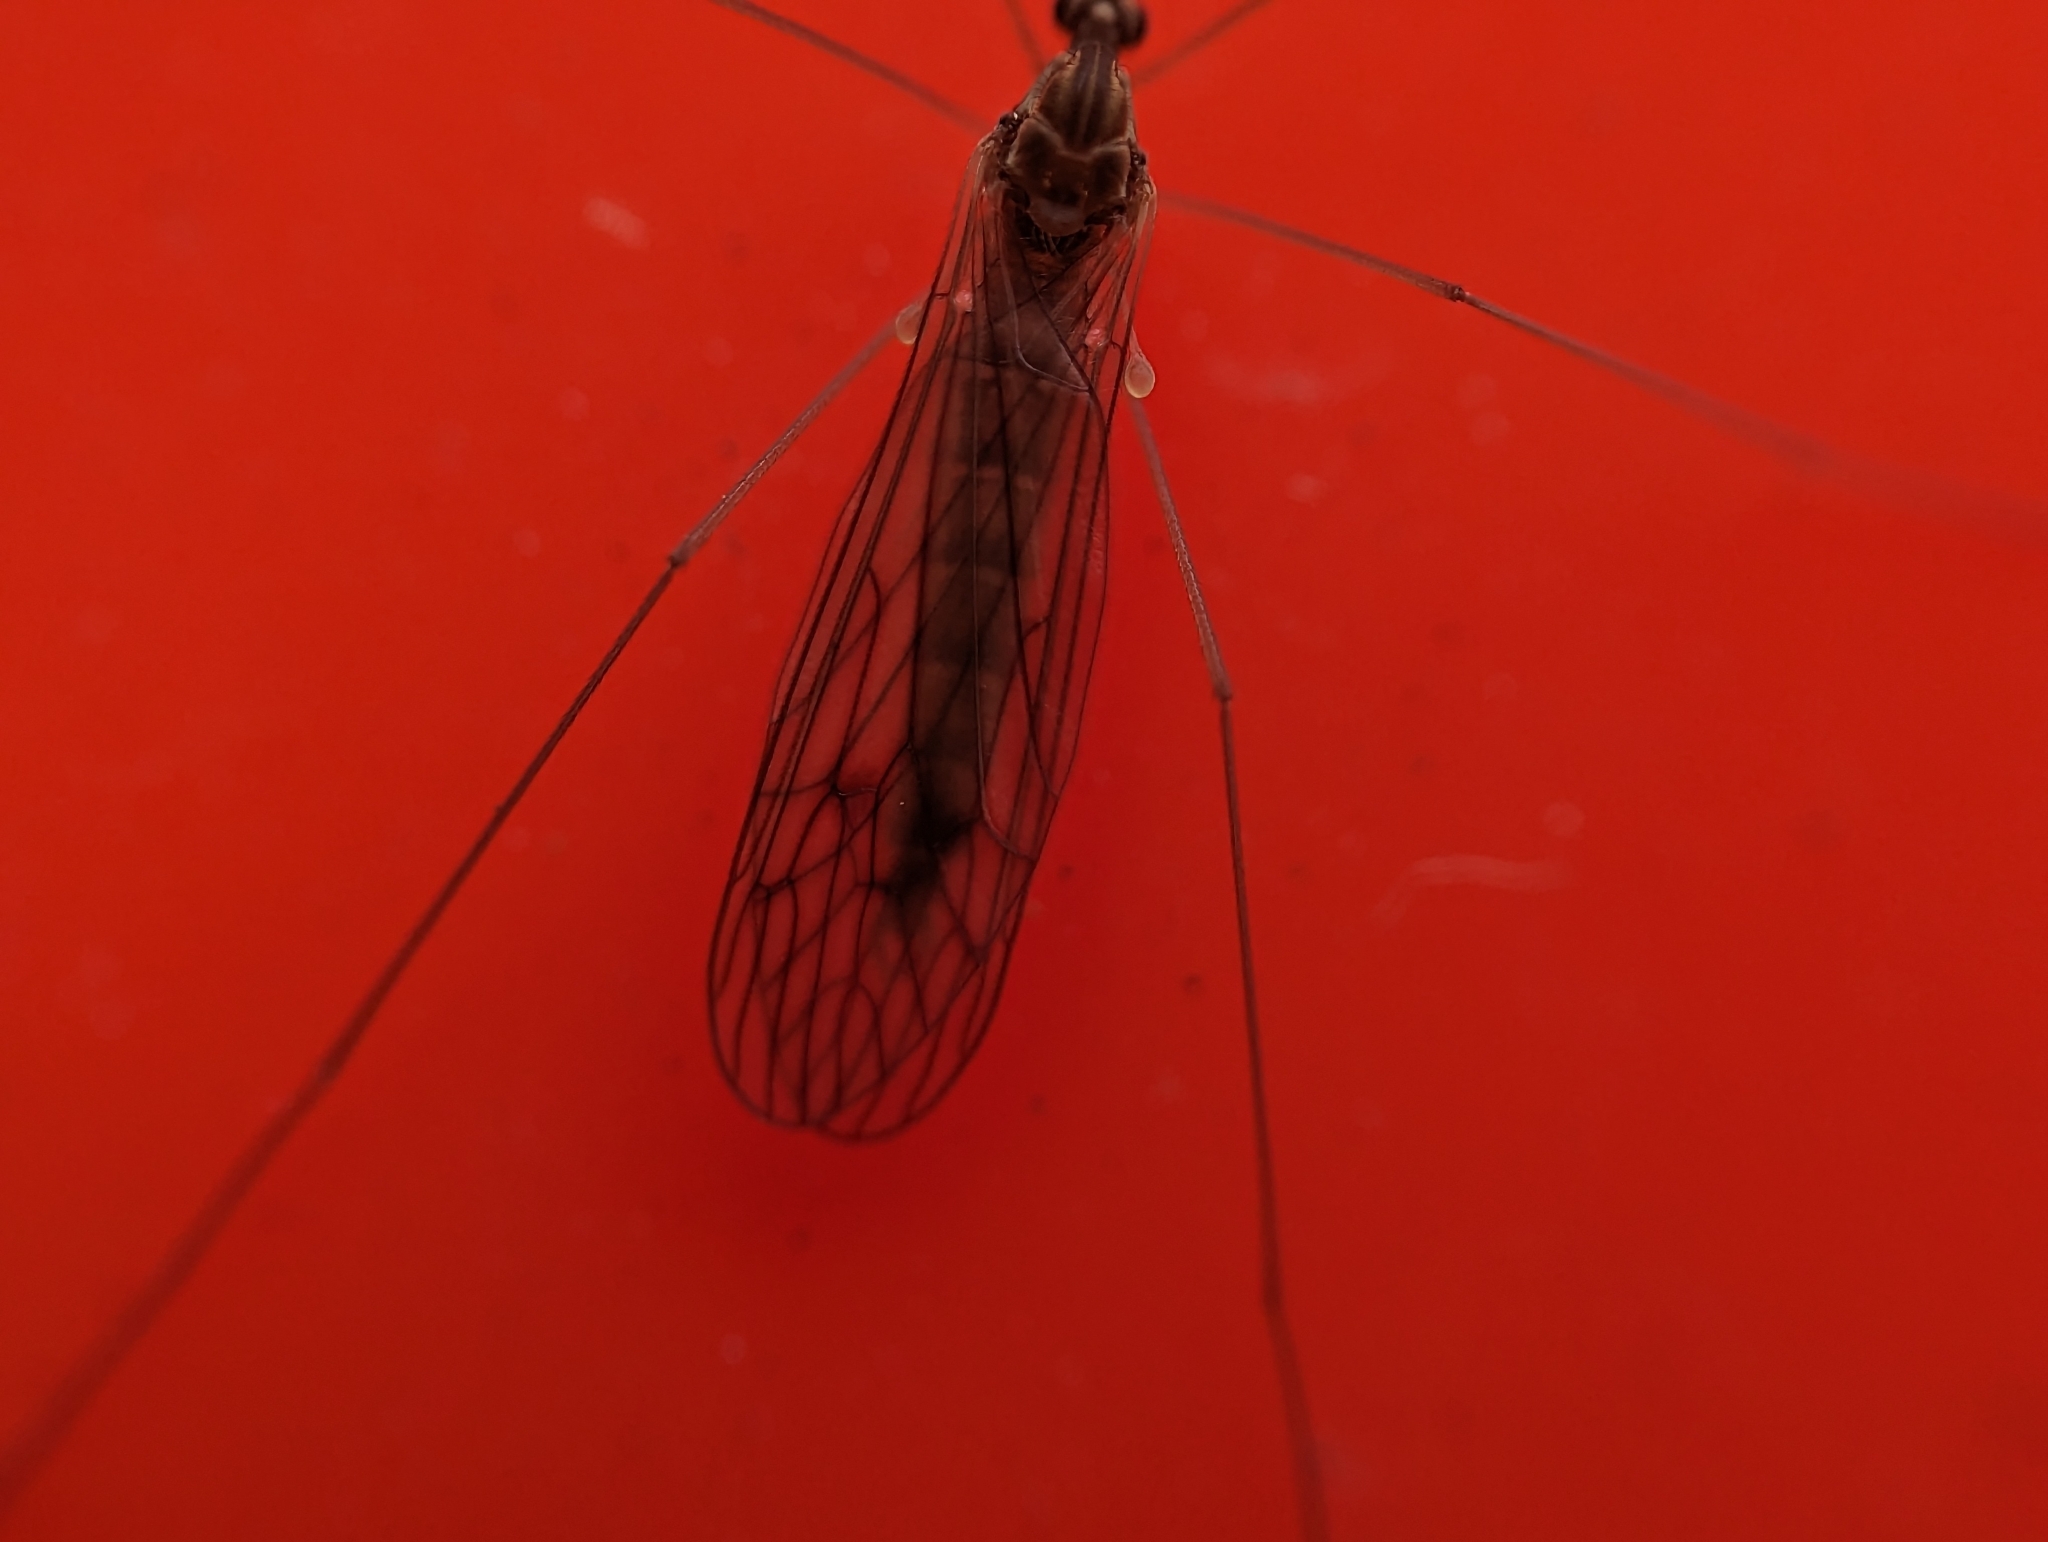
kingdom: Animalia
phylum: Arthropoda
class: Insecta
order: Diptera
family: Trichoceridae
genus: Trichocera
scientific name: Trichocera annulata
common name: Winter gnat
